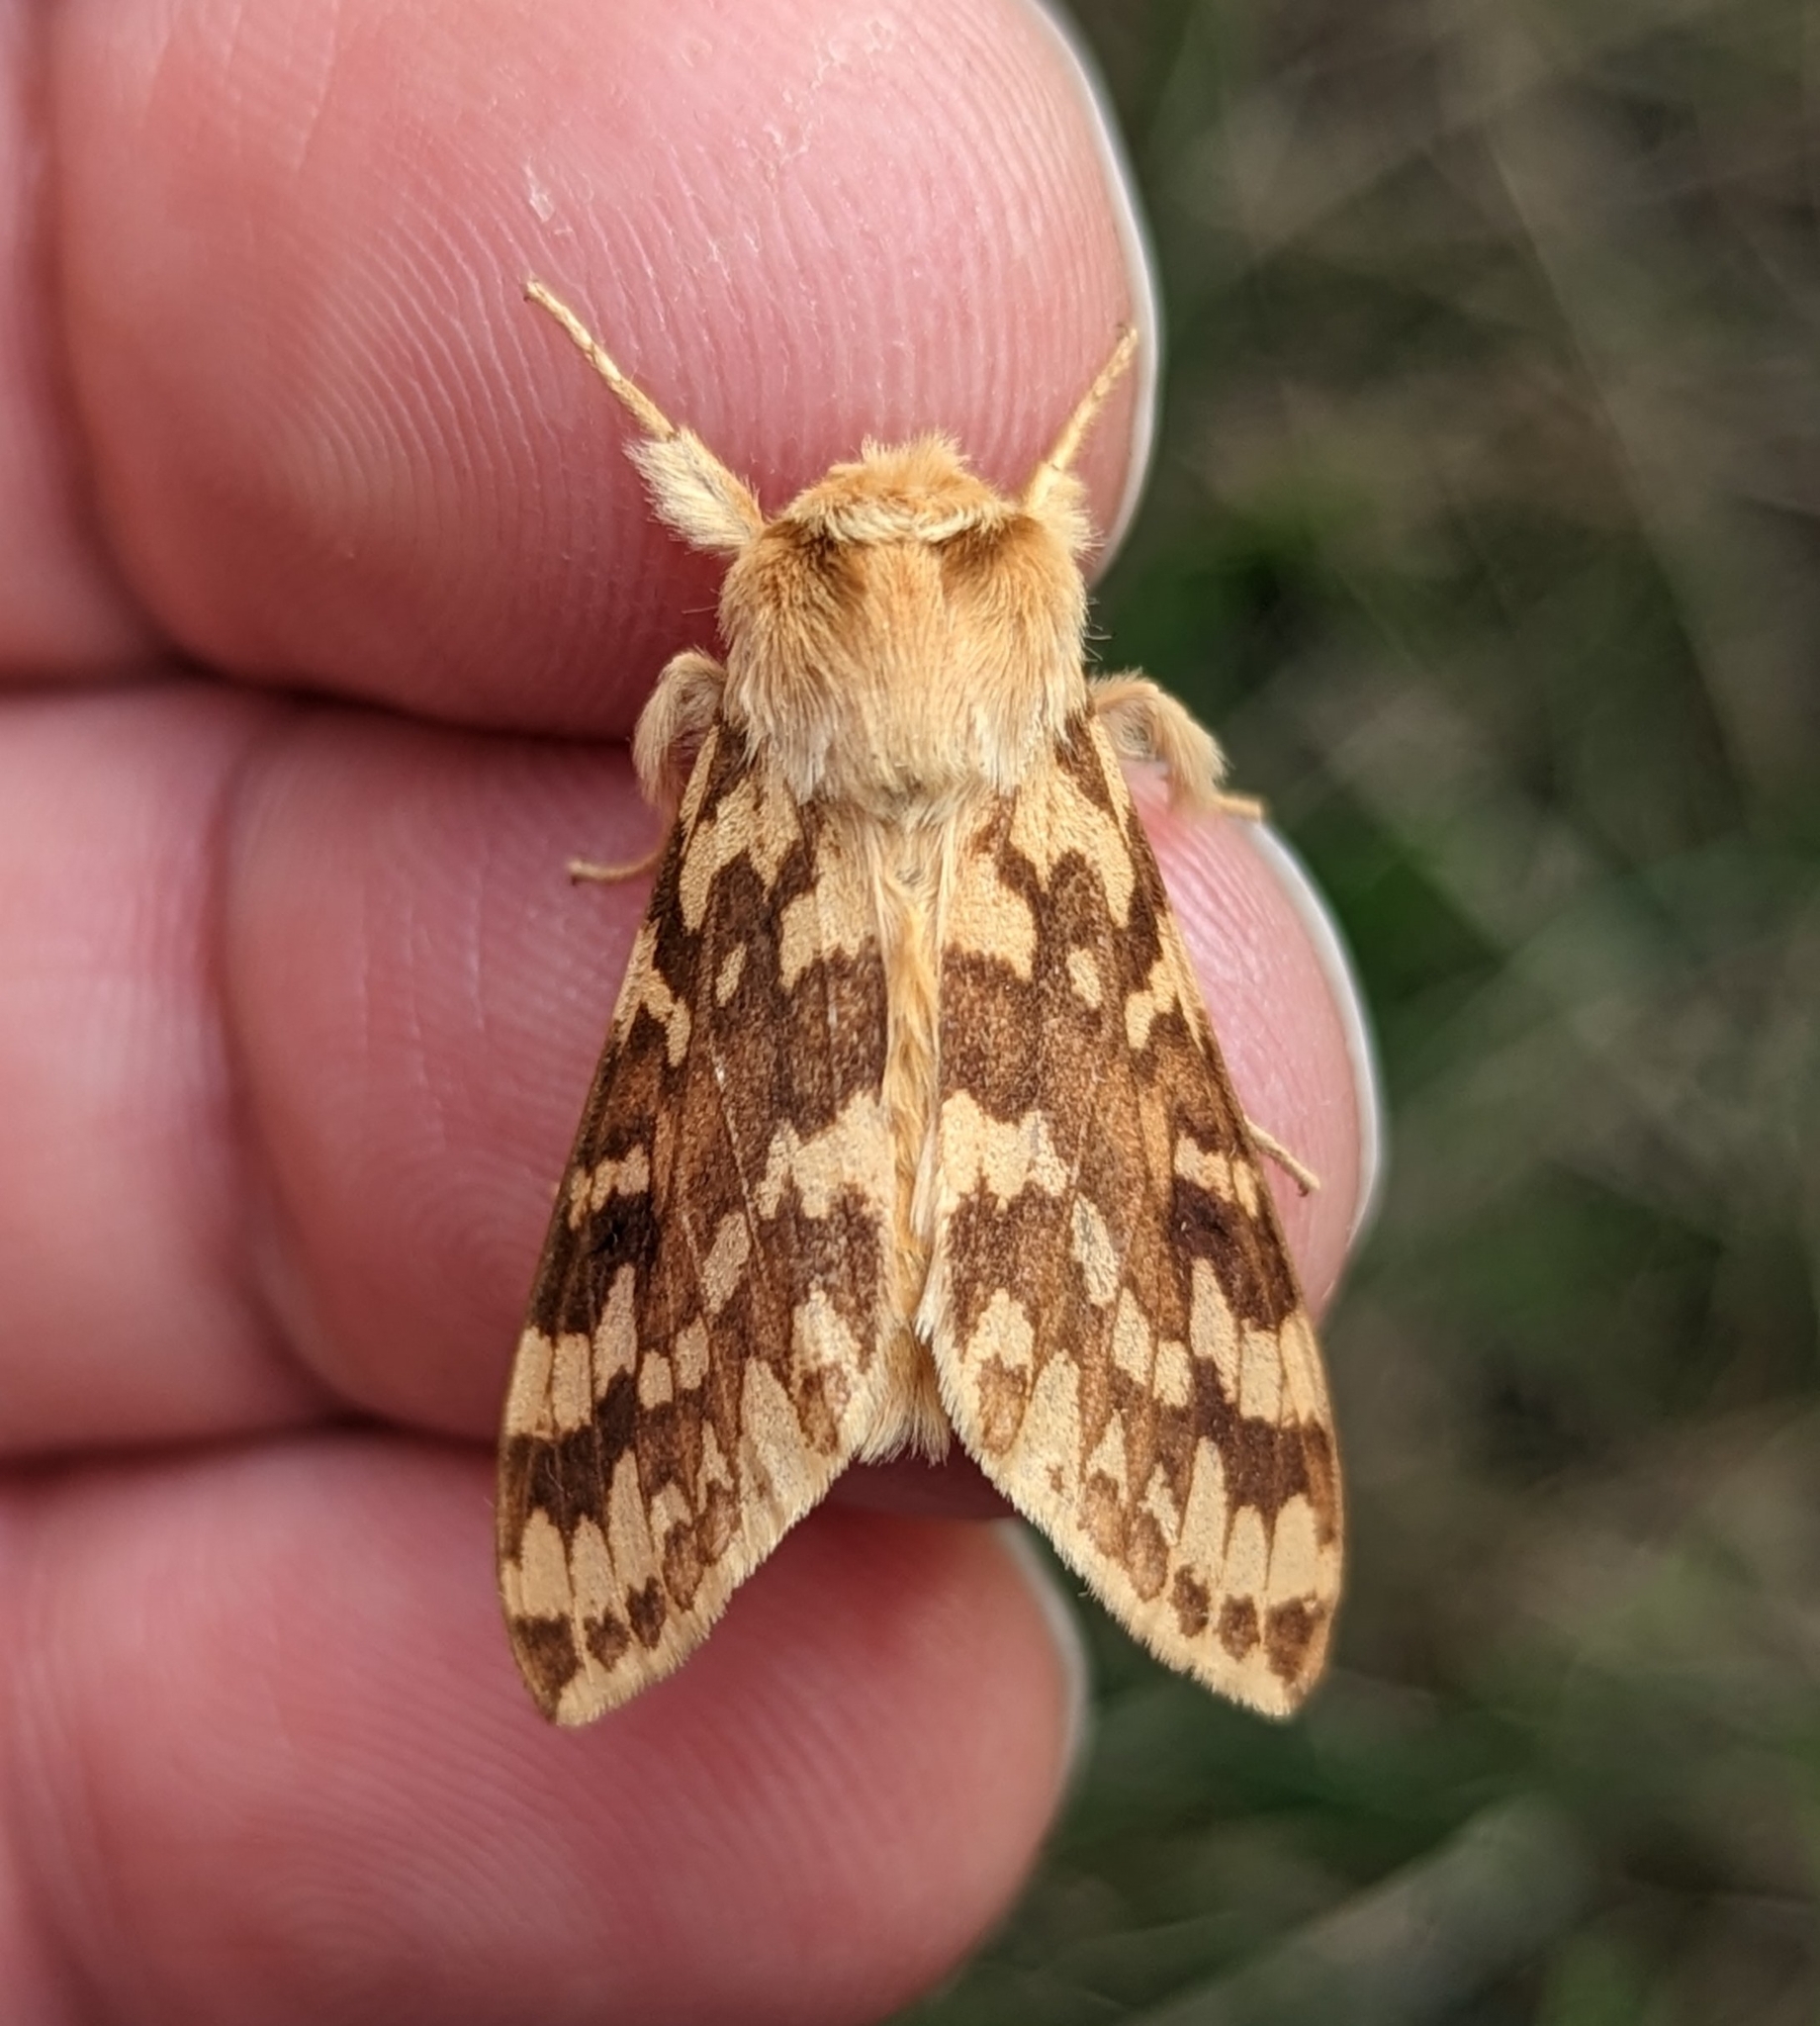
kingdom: Animalia
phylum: Arthropoda
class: Insecta
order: Lepidoptera
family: Erebidae
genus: Lophocampa
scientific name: Lophocampa maculata
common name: Spotted tussock moth
